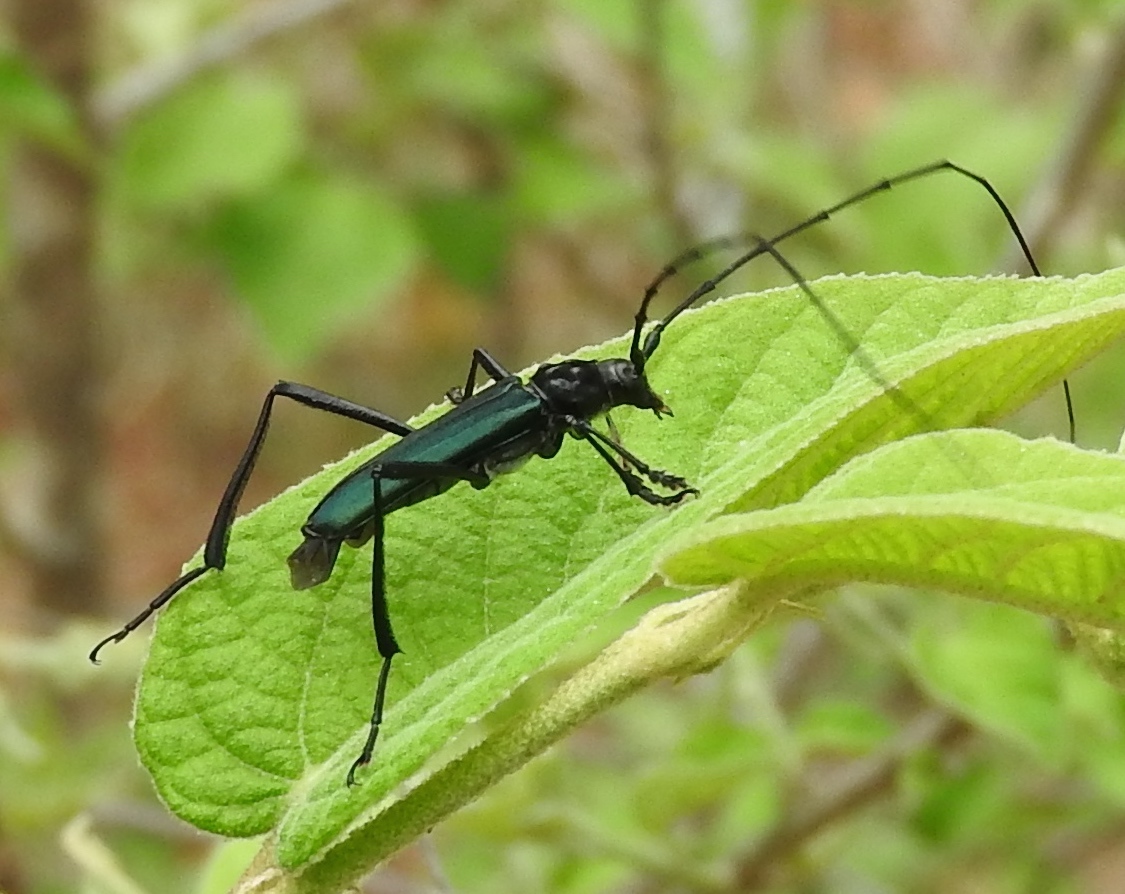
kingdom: Animalia
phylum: Arthropoda
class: Insecta
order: Coleoptera
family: Cerambycidae
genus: Pseudodeltaspis
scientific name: Pseudodeltaspis cyanea
